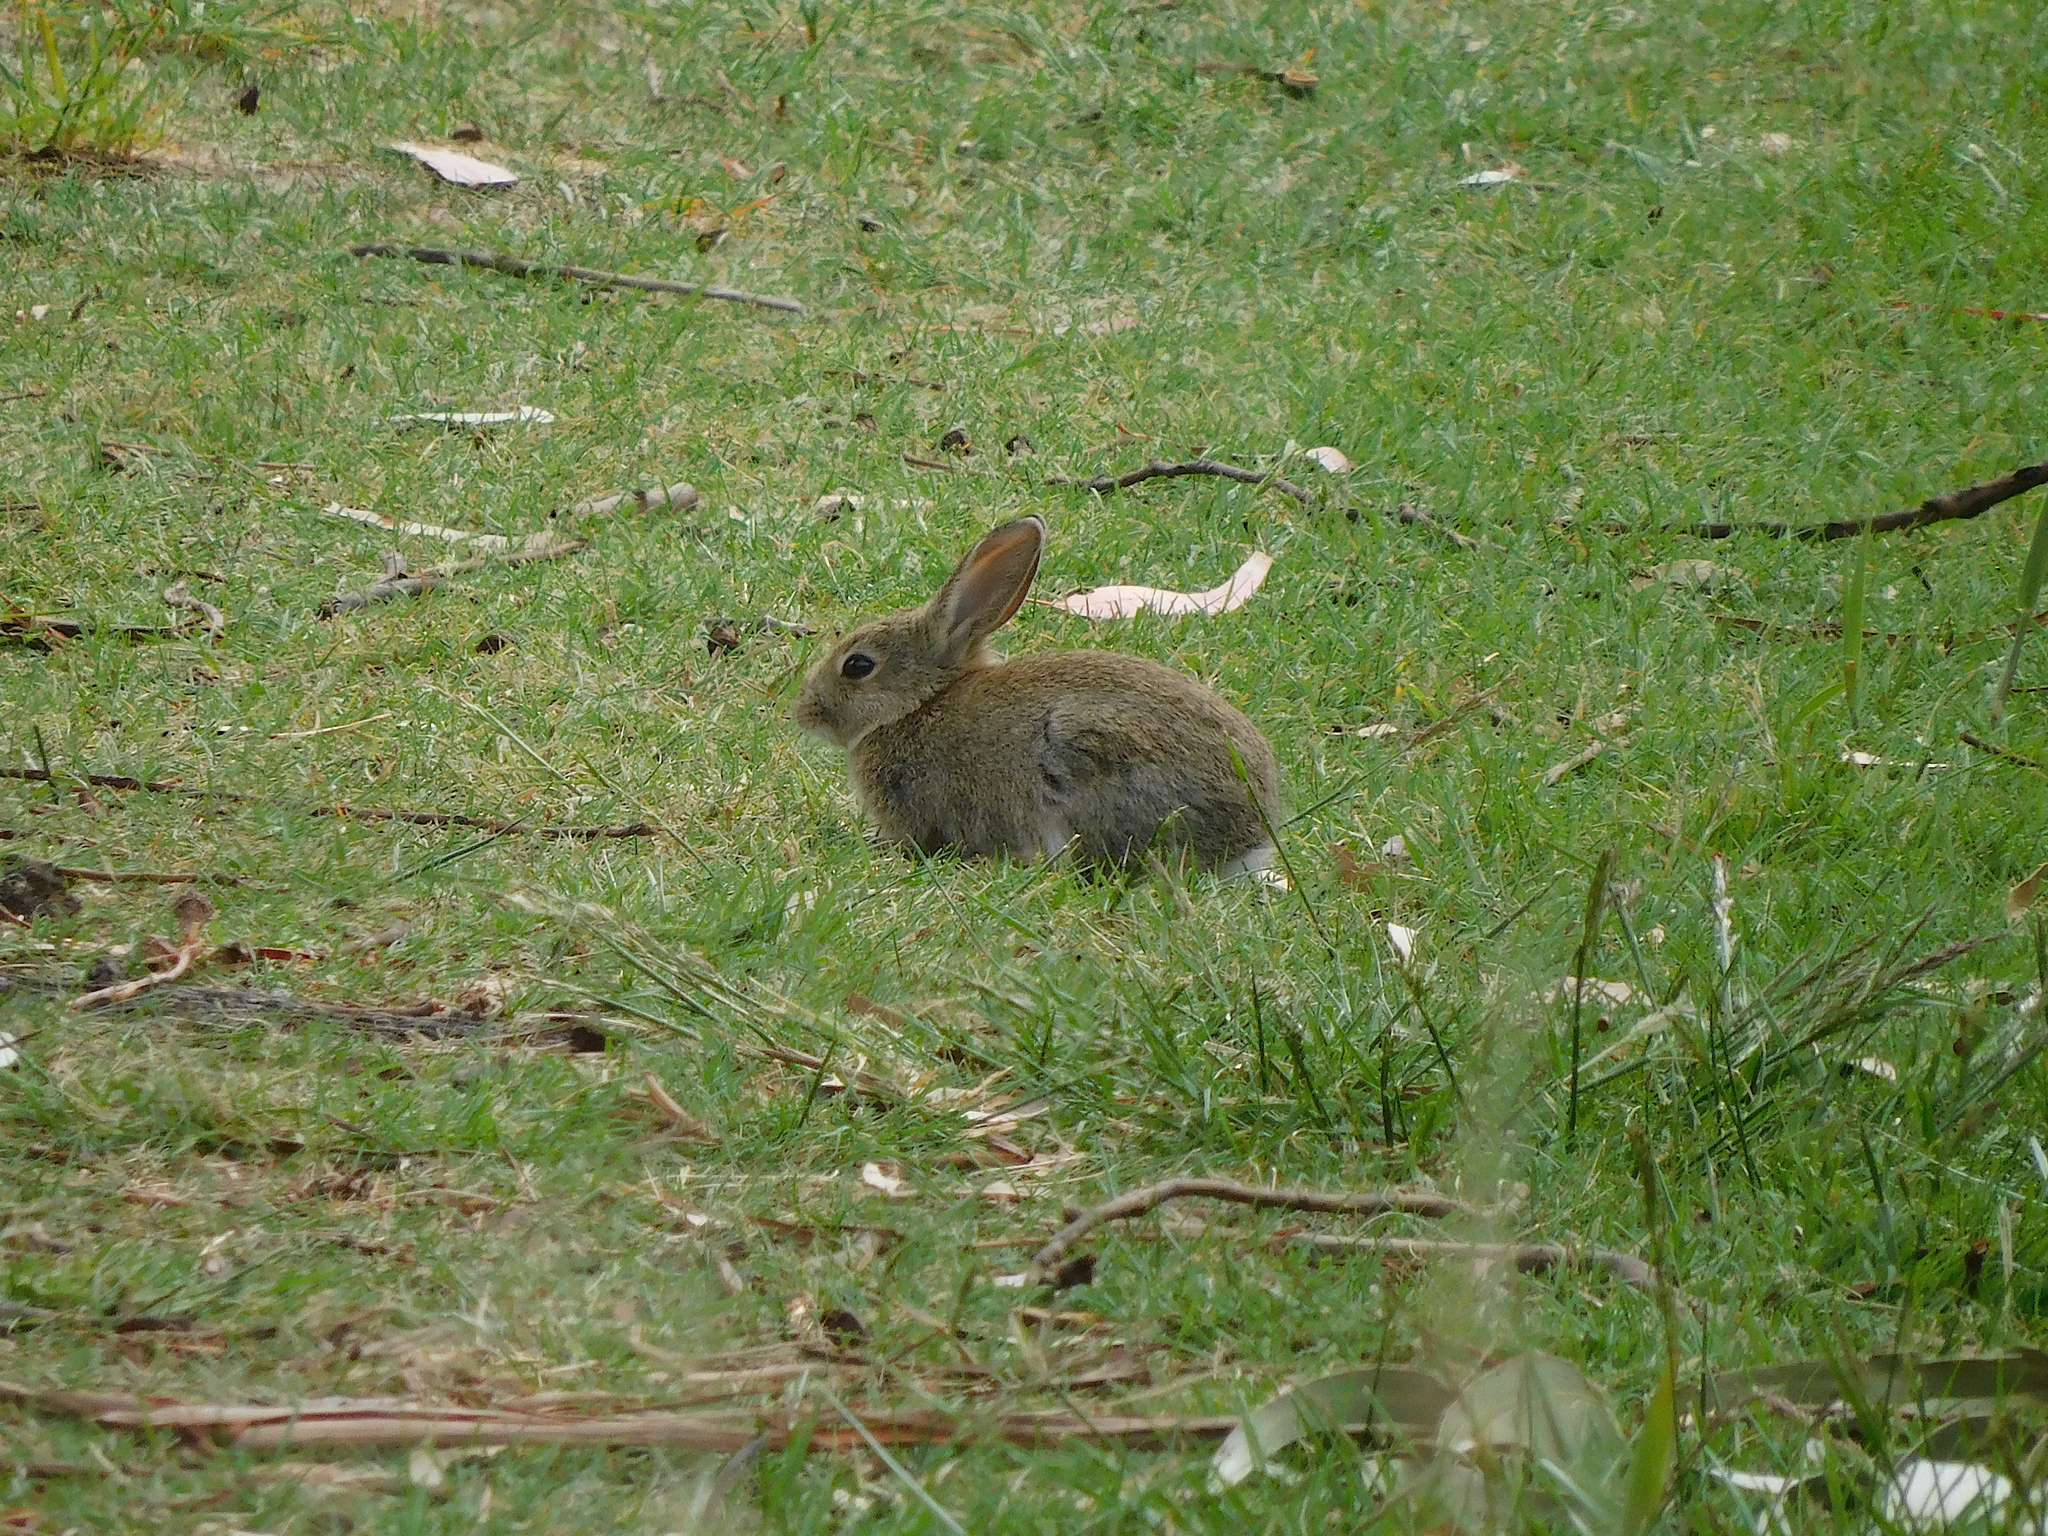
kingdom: Animalia
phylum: Chordata
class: Mammalia
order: Lagomorpha
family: Leporidae
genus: Oryctolagus
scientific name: Oryctolagus cuniculus
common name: European rabbit
